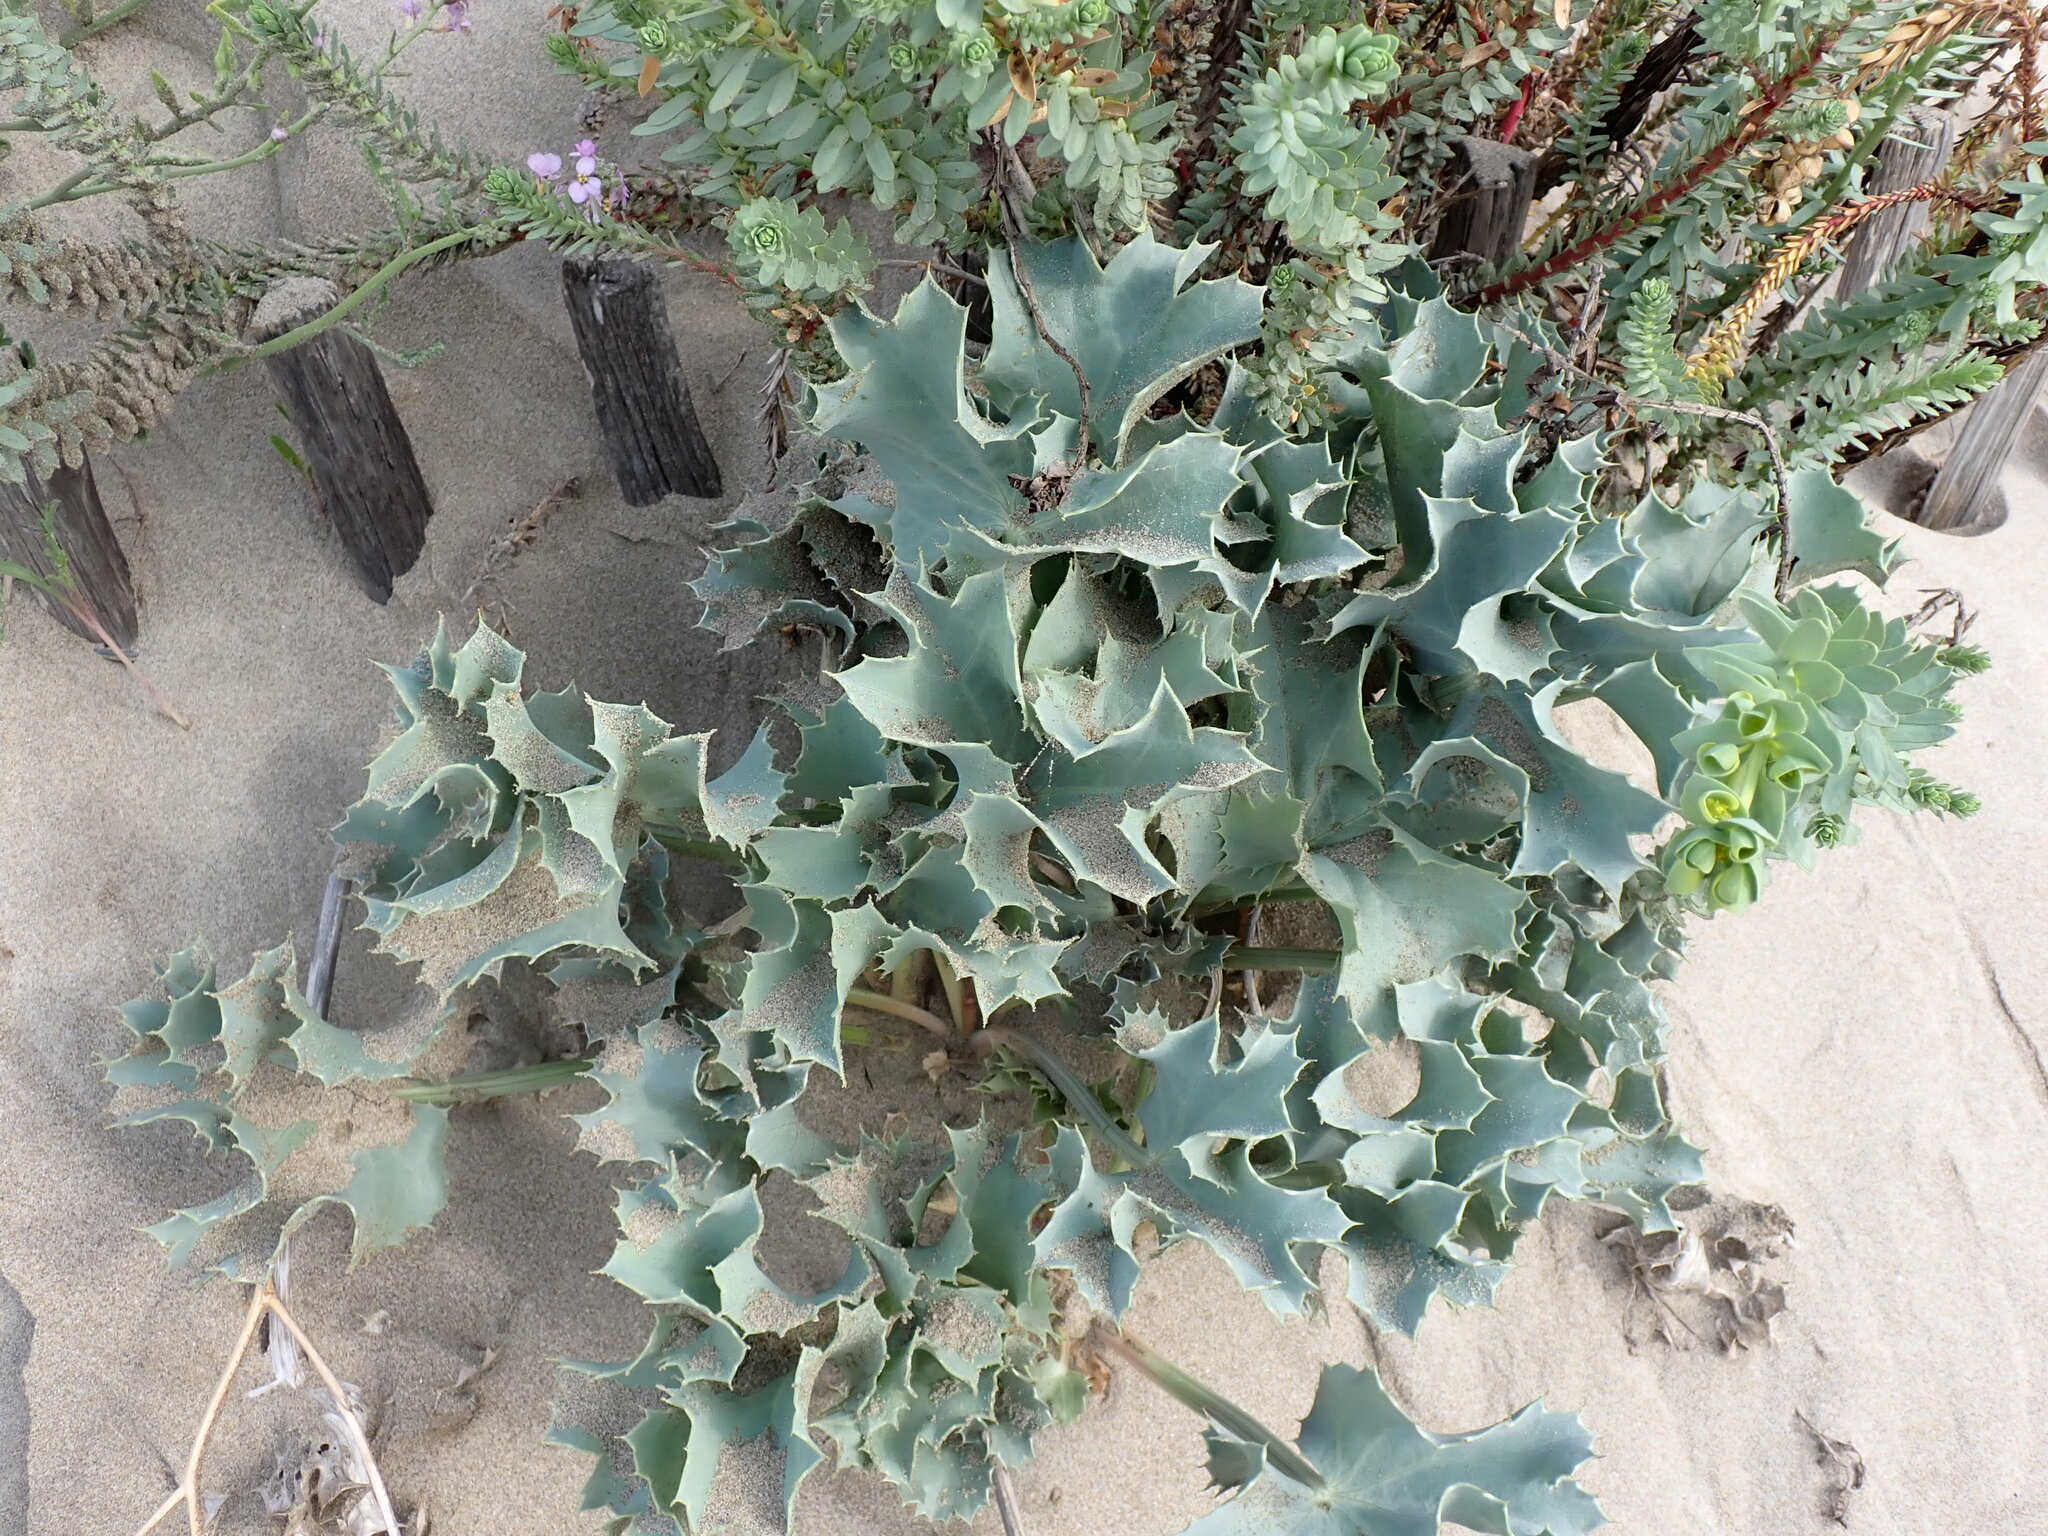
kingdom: Plantae
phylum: Tracheophyta
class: Magnoliopsida
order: Apiales
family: Apiaceae
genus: Eryngium
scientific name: Eryngium maritimum
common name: Sea-holly
